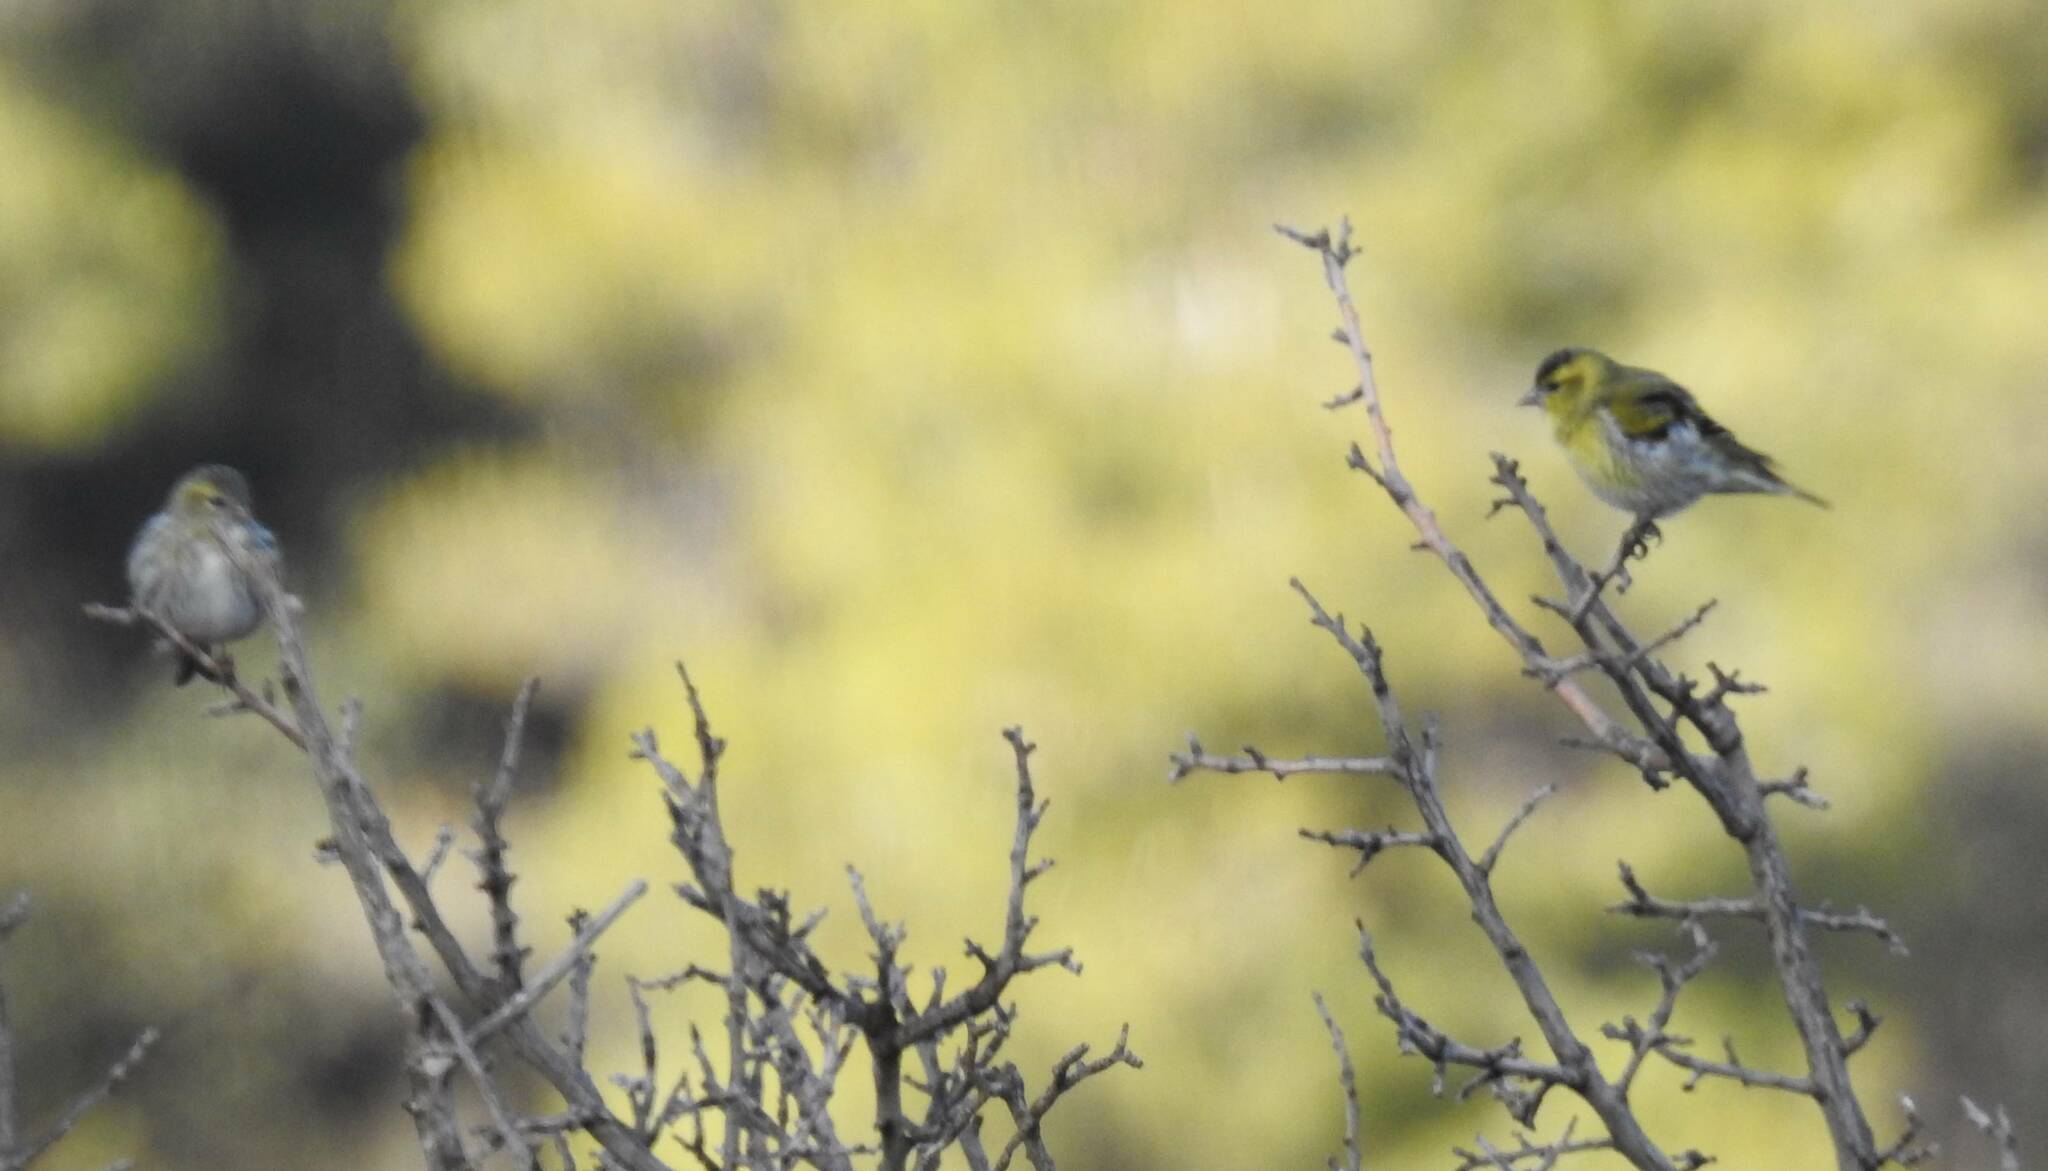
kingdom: Animalia
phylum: Chordata
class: Aves
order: Passeriformes
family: Fringillidae
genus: Spinus
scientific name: Spinus spinus
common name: Eurasian siskin
